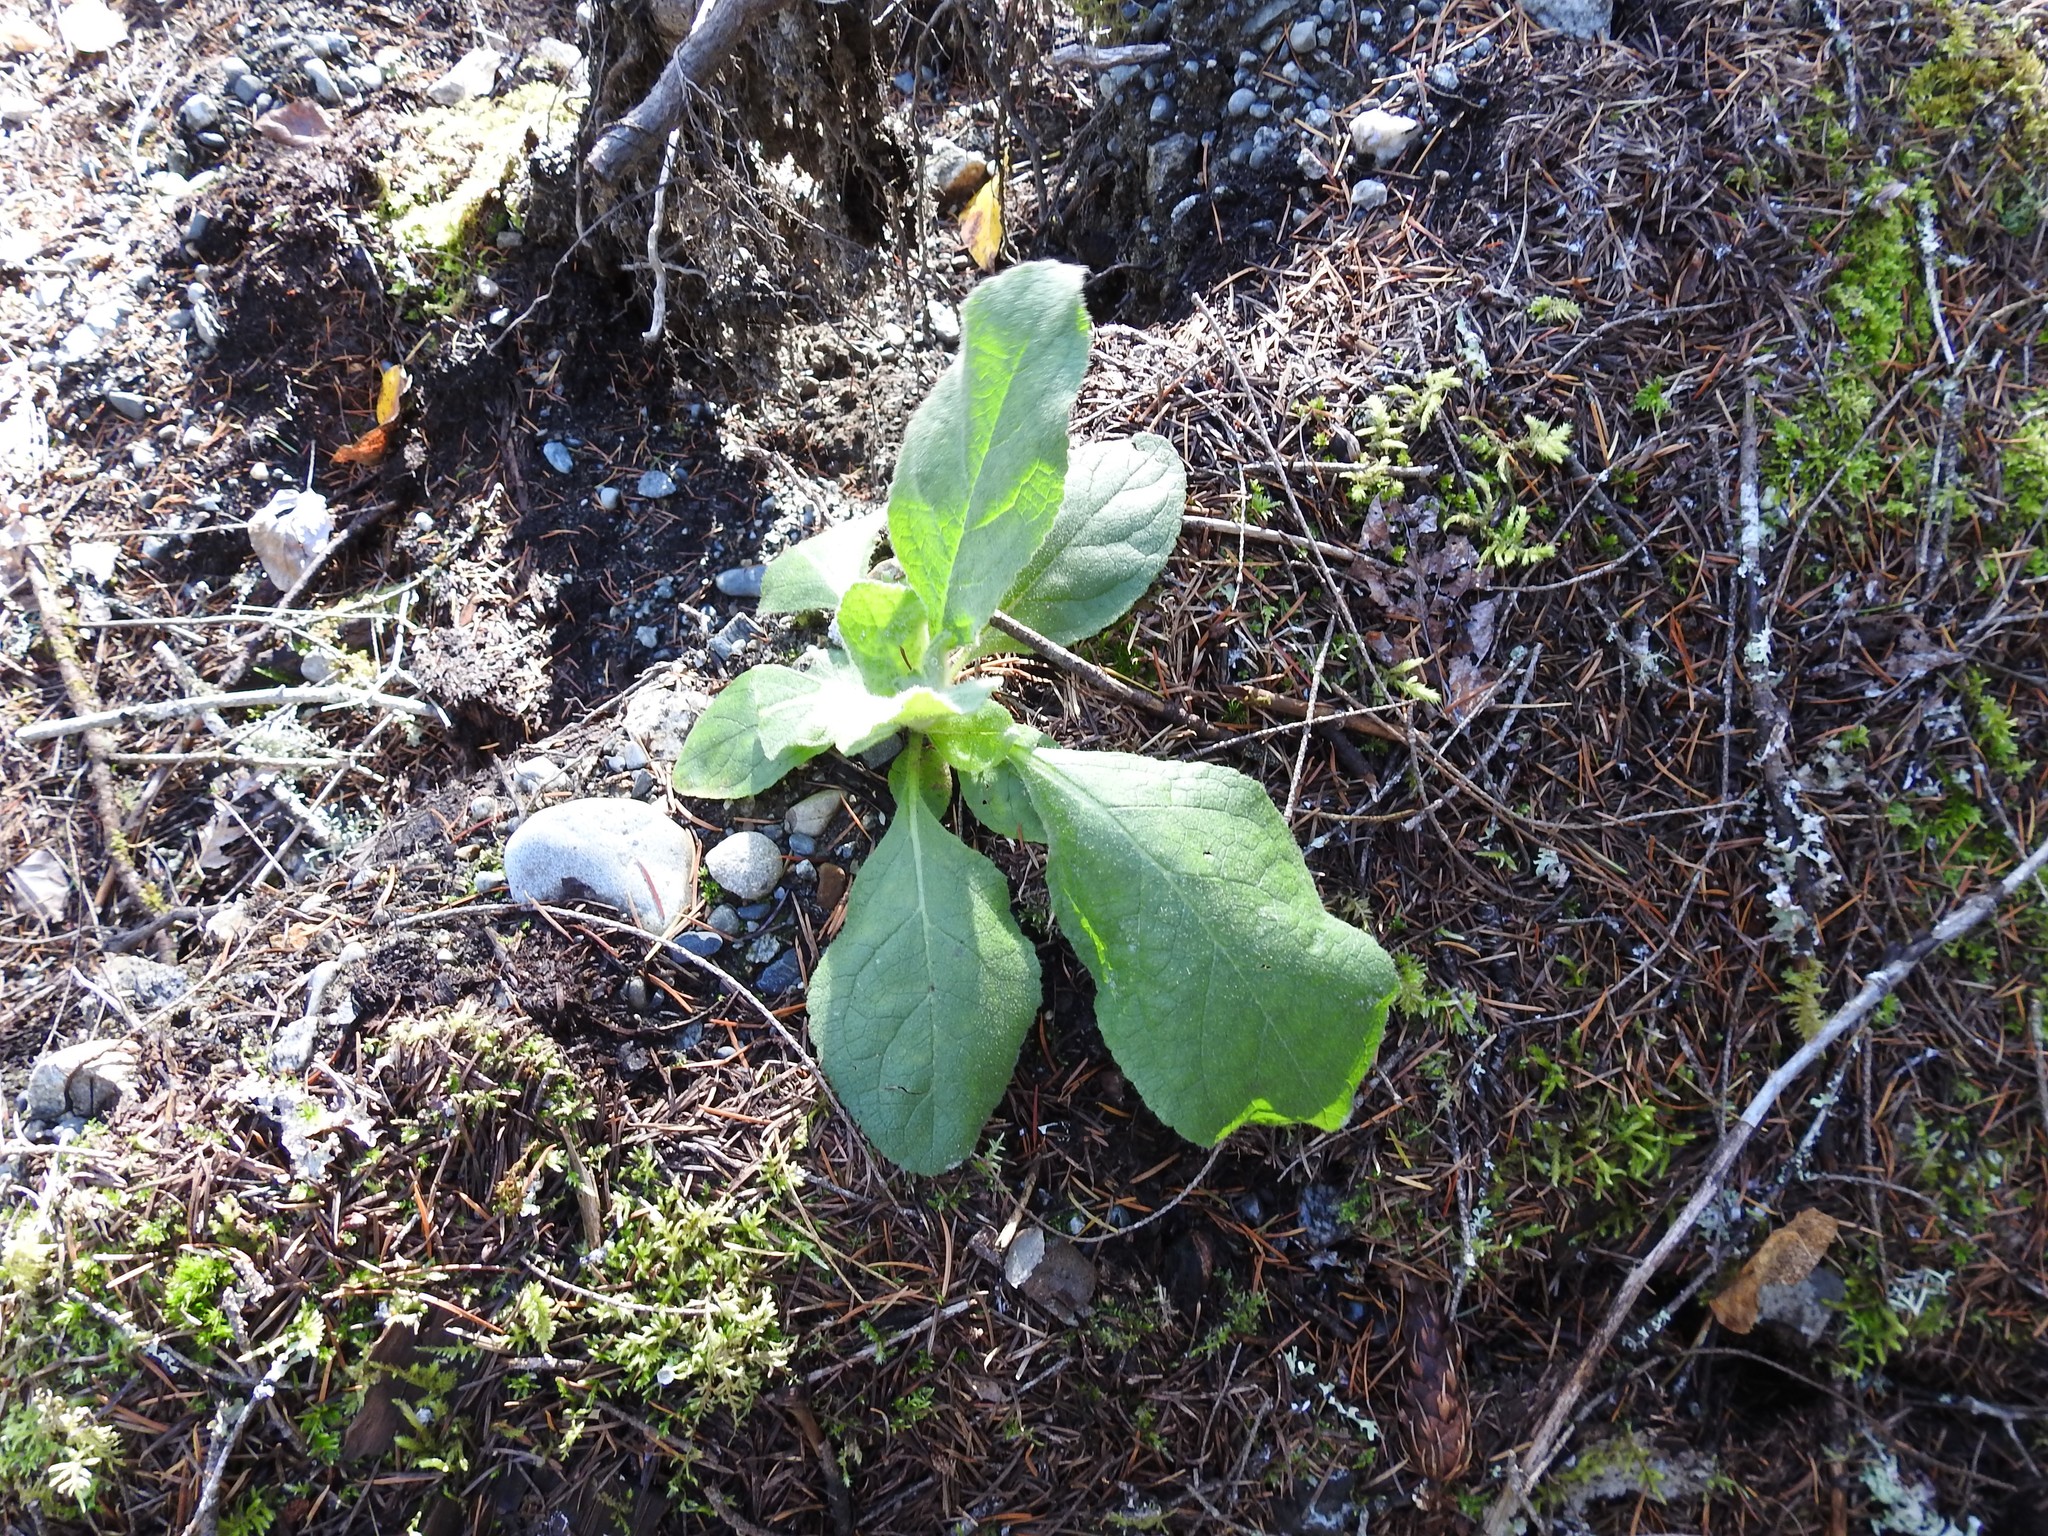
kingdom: Plantae
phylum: Tracheophyta
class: Magnoliopsida
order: Lamiales
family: Scrophulariaceae
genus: Verbascum
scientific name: Verbascum thapsus
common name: Common mullein
